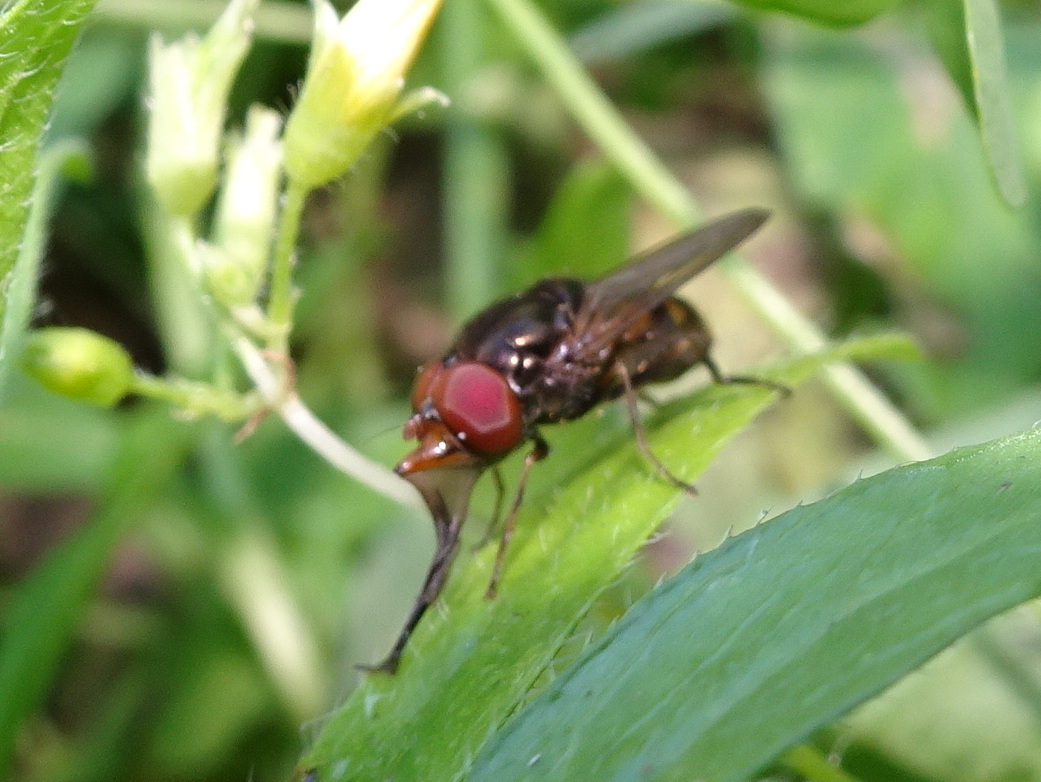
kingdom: Animalia
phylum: Arthropoda
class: Insecta
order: Diptera
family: Syrphidae
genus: Rhingia
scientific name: Rhingia nasica
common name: American snout fly
